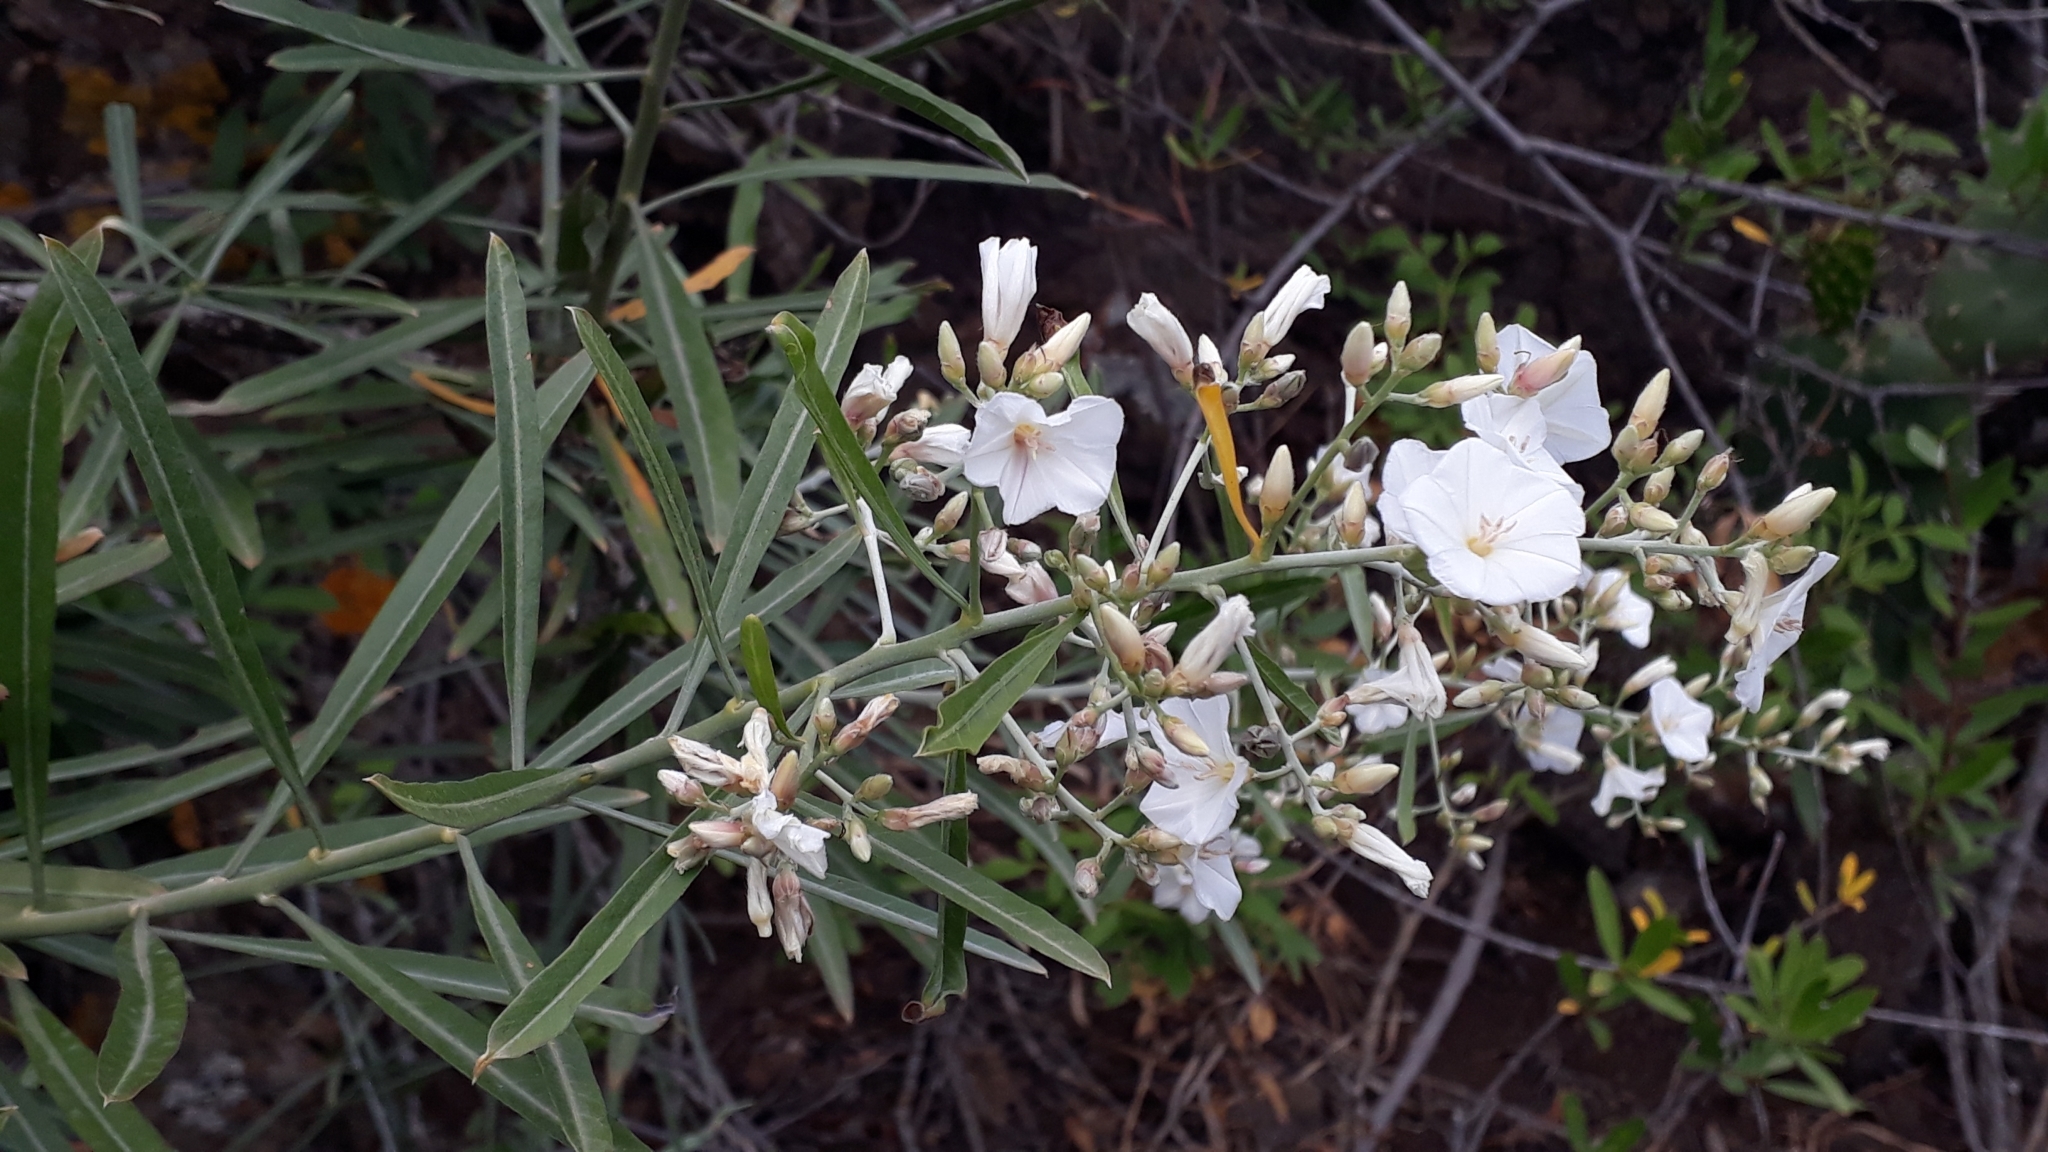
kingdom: Plantae
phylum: Tracheophyta
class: Magnoliopsida
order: Solanales
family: Convolvulaceae
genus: Convolvulus
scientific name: Convolvulus floridus
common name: Guadil
